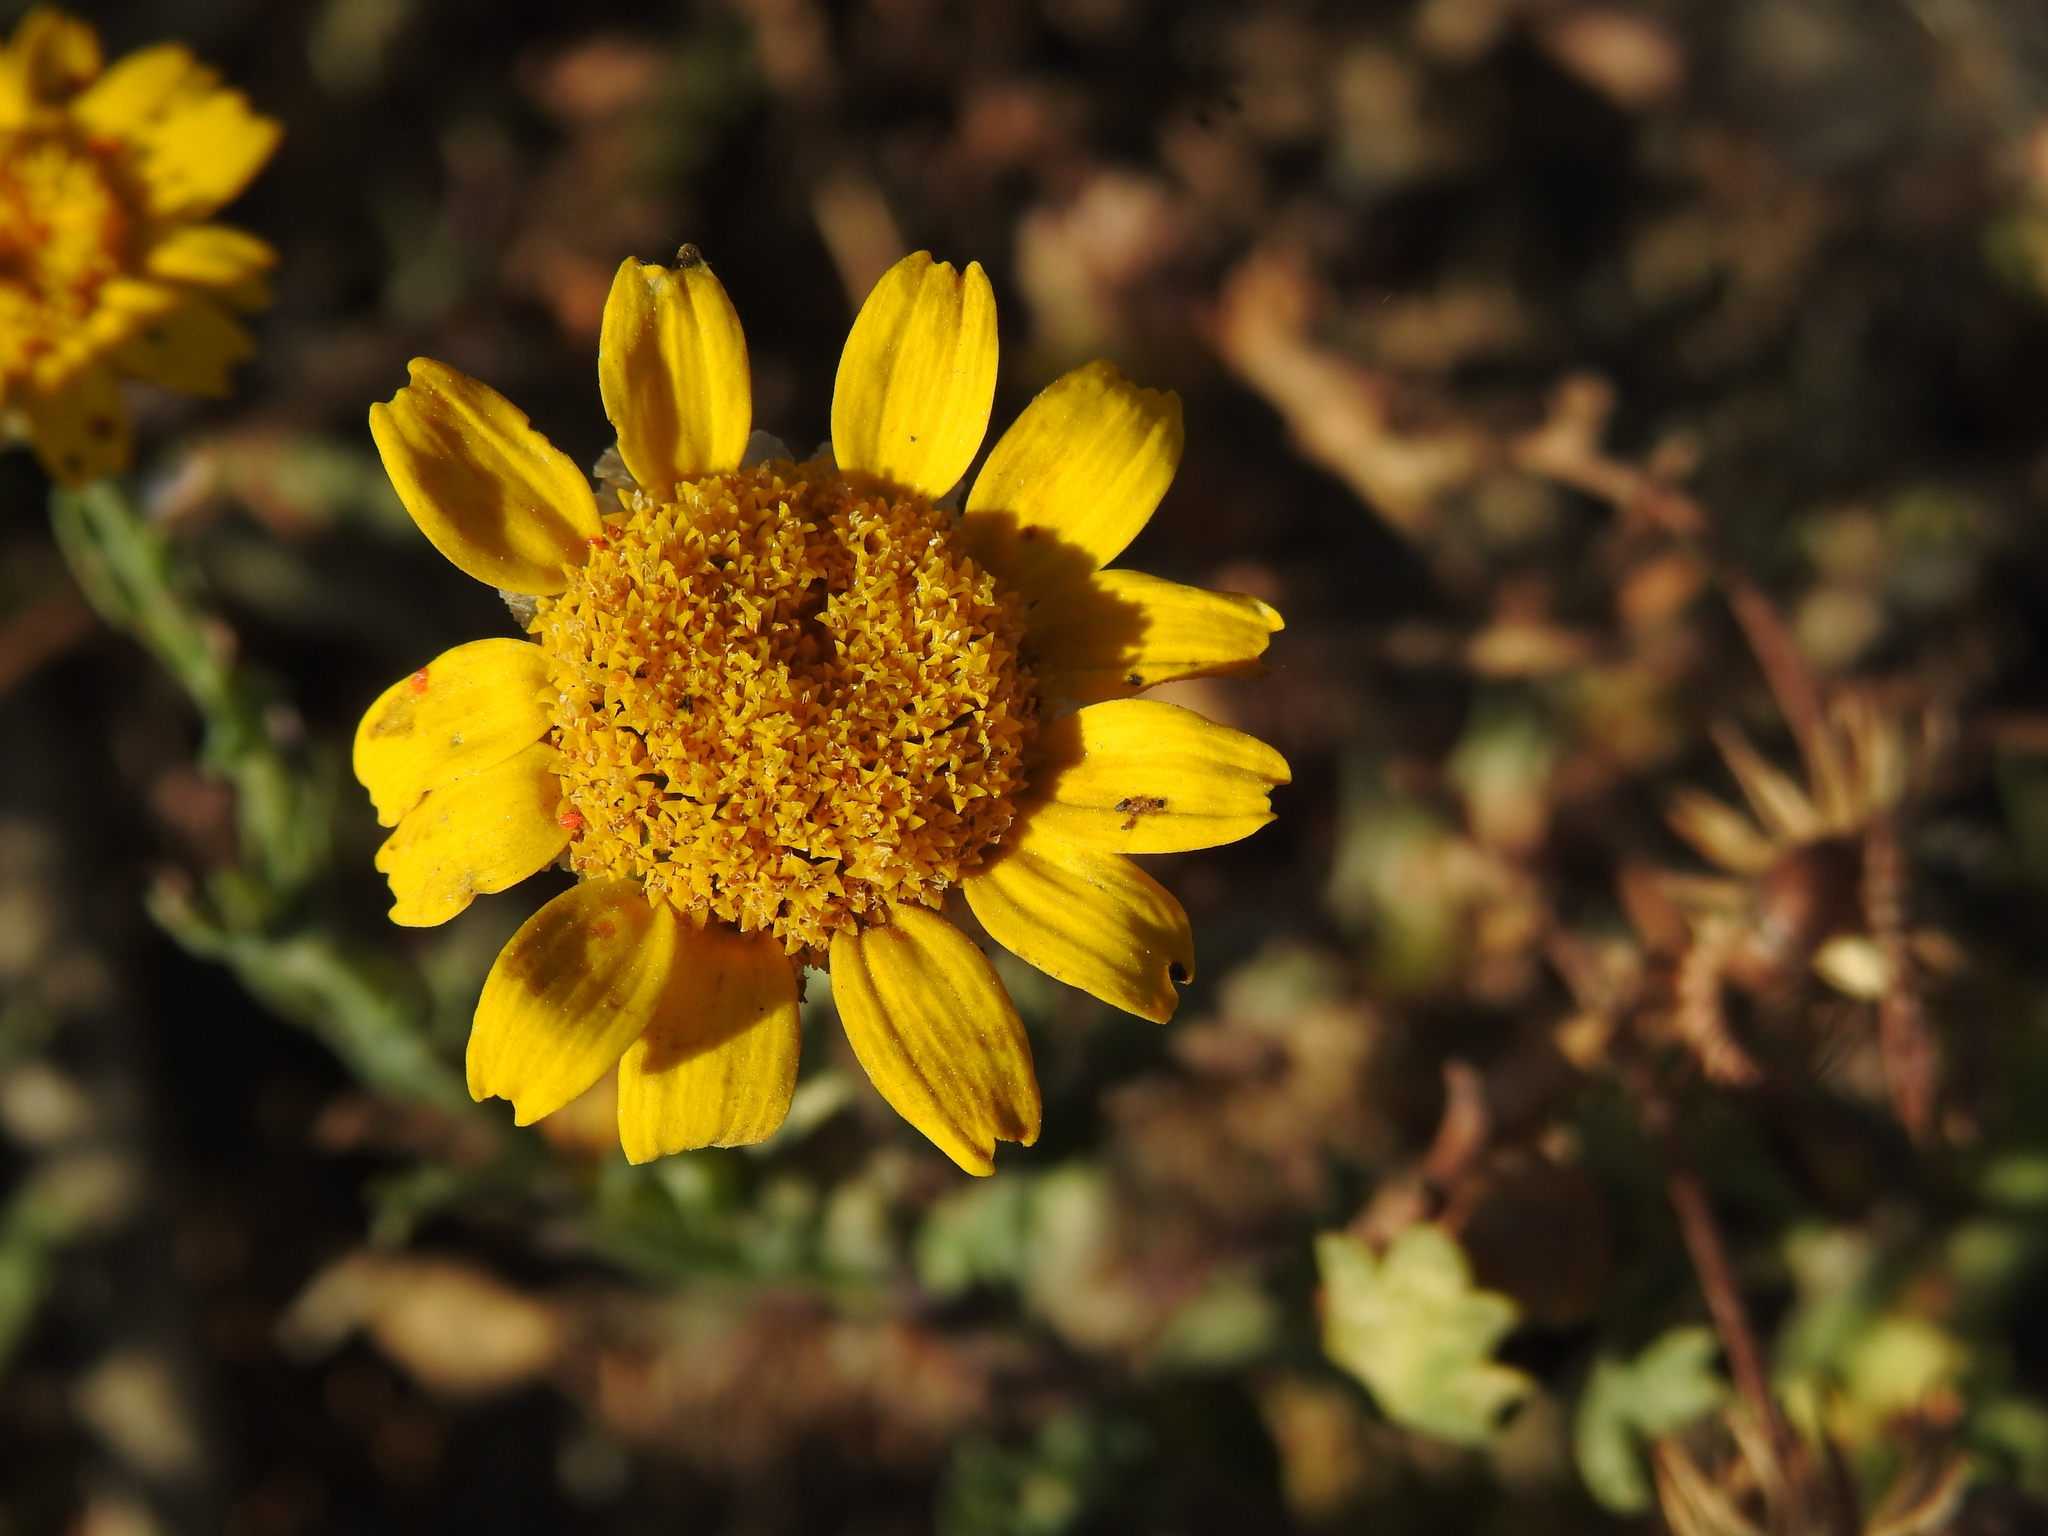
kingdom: Plantae
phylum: Tracheophyta
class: Magnoliopsida
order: Asterales
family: Asteraceae
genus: Glebionis
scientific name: Glebionis segetum
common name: Corndaisy
